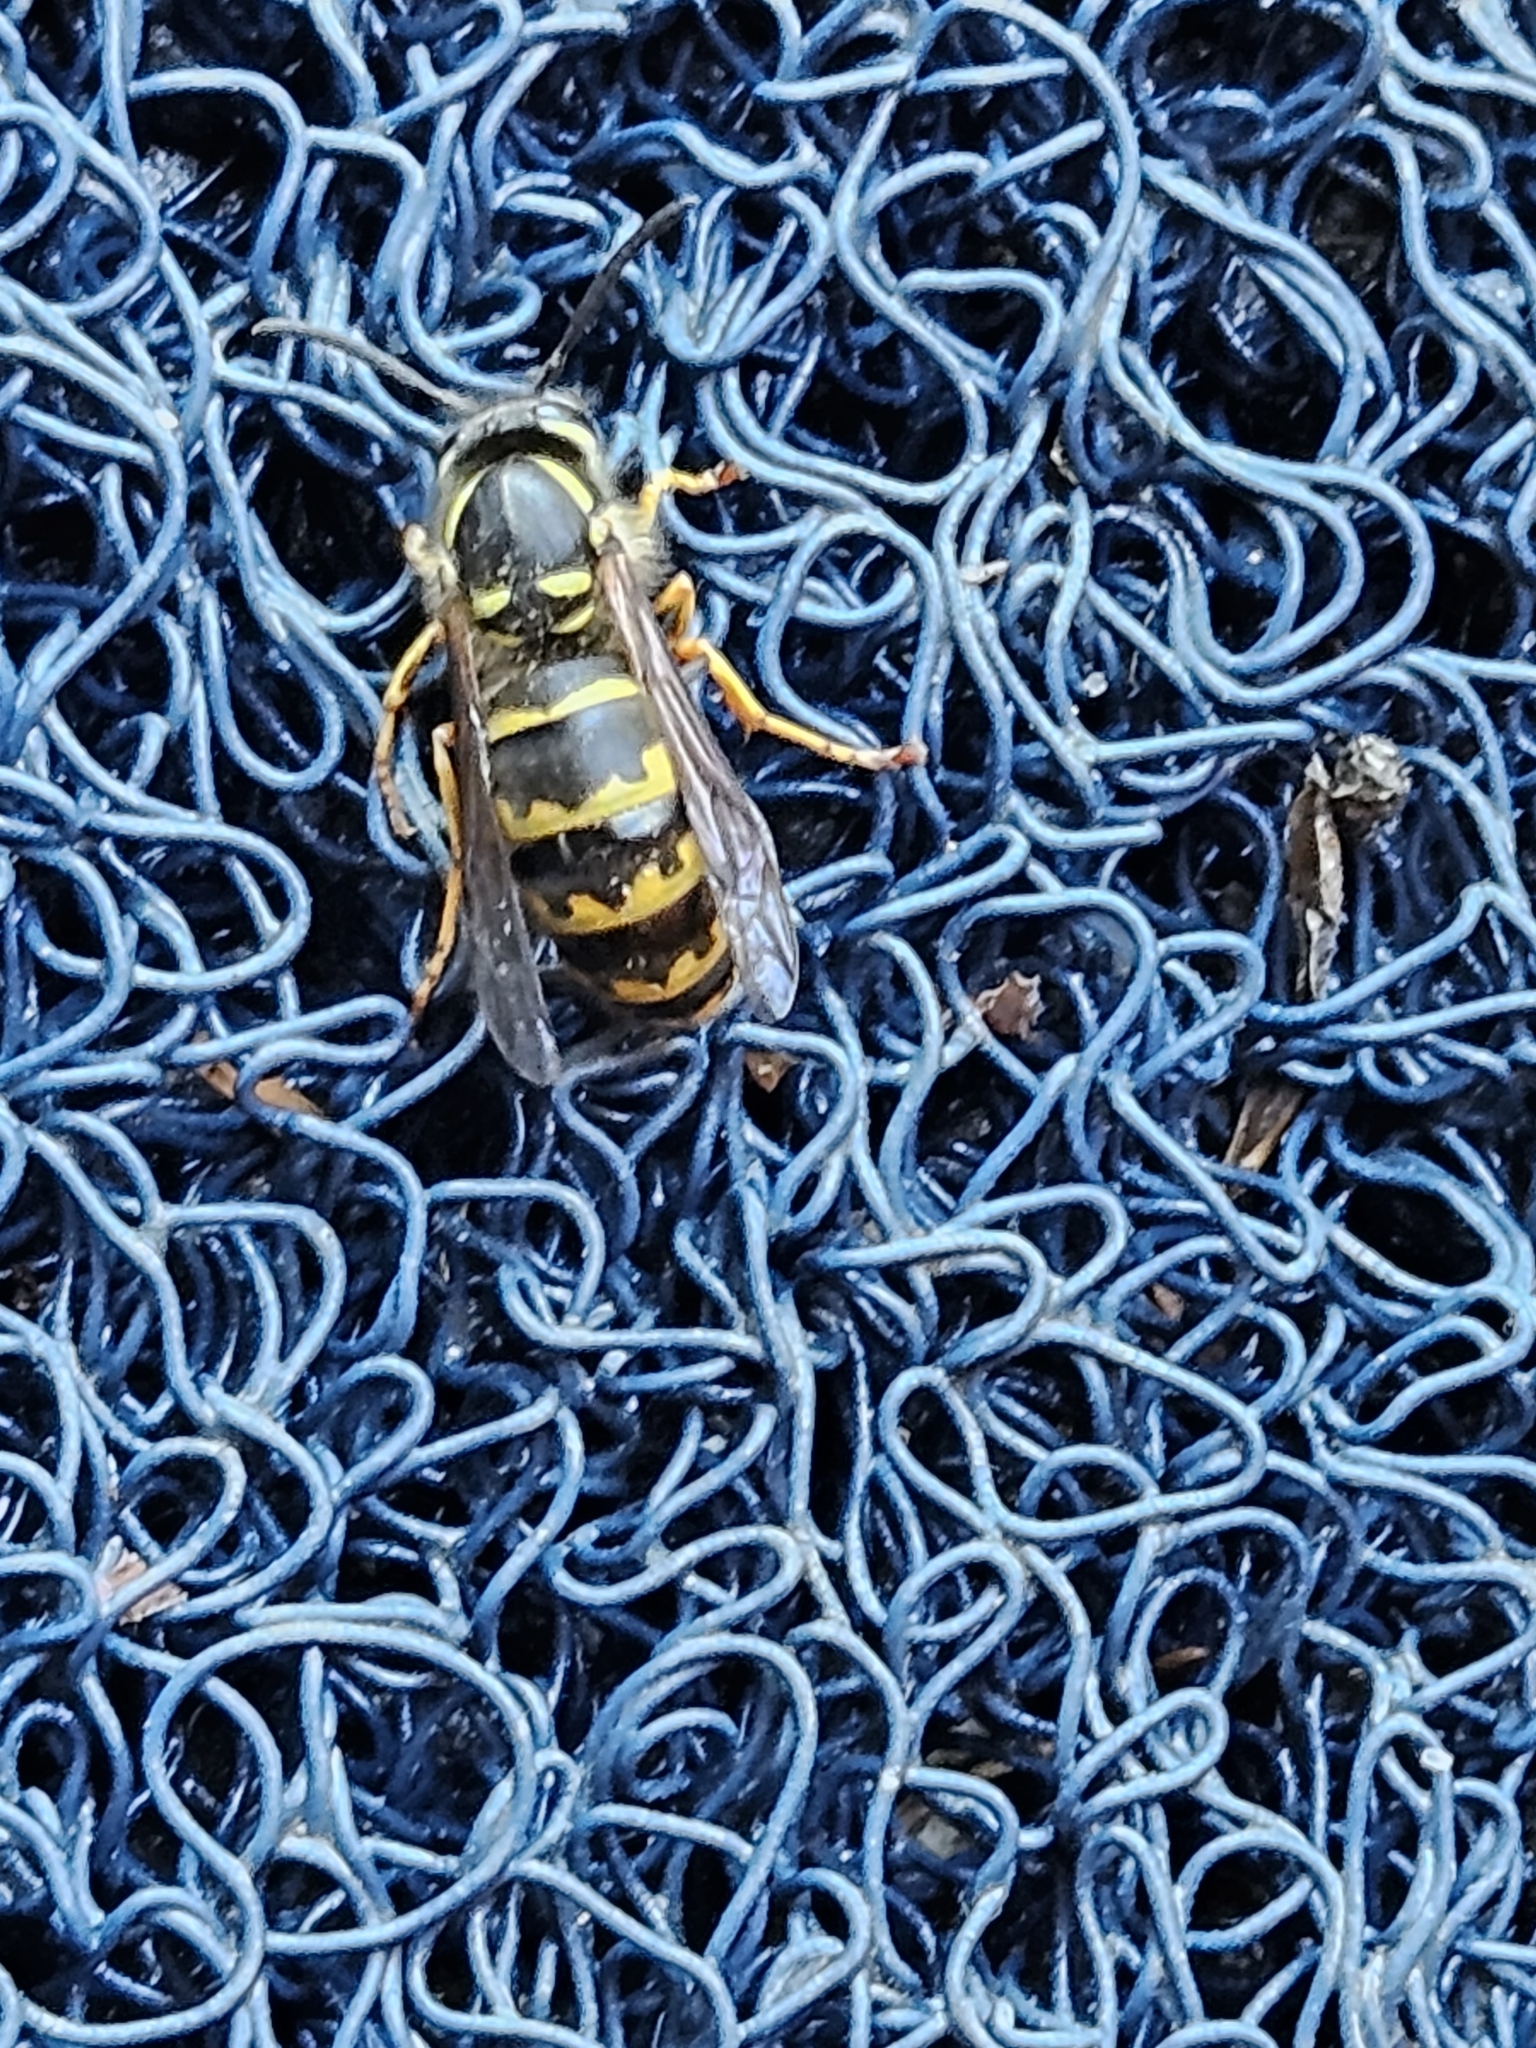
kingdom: Animalia
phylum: Arthropoda
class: Insecta
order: Hymenoptera
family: Vespidae
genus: Vespula
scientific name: Vespula alascensis
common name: Alaska yellowjacket
